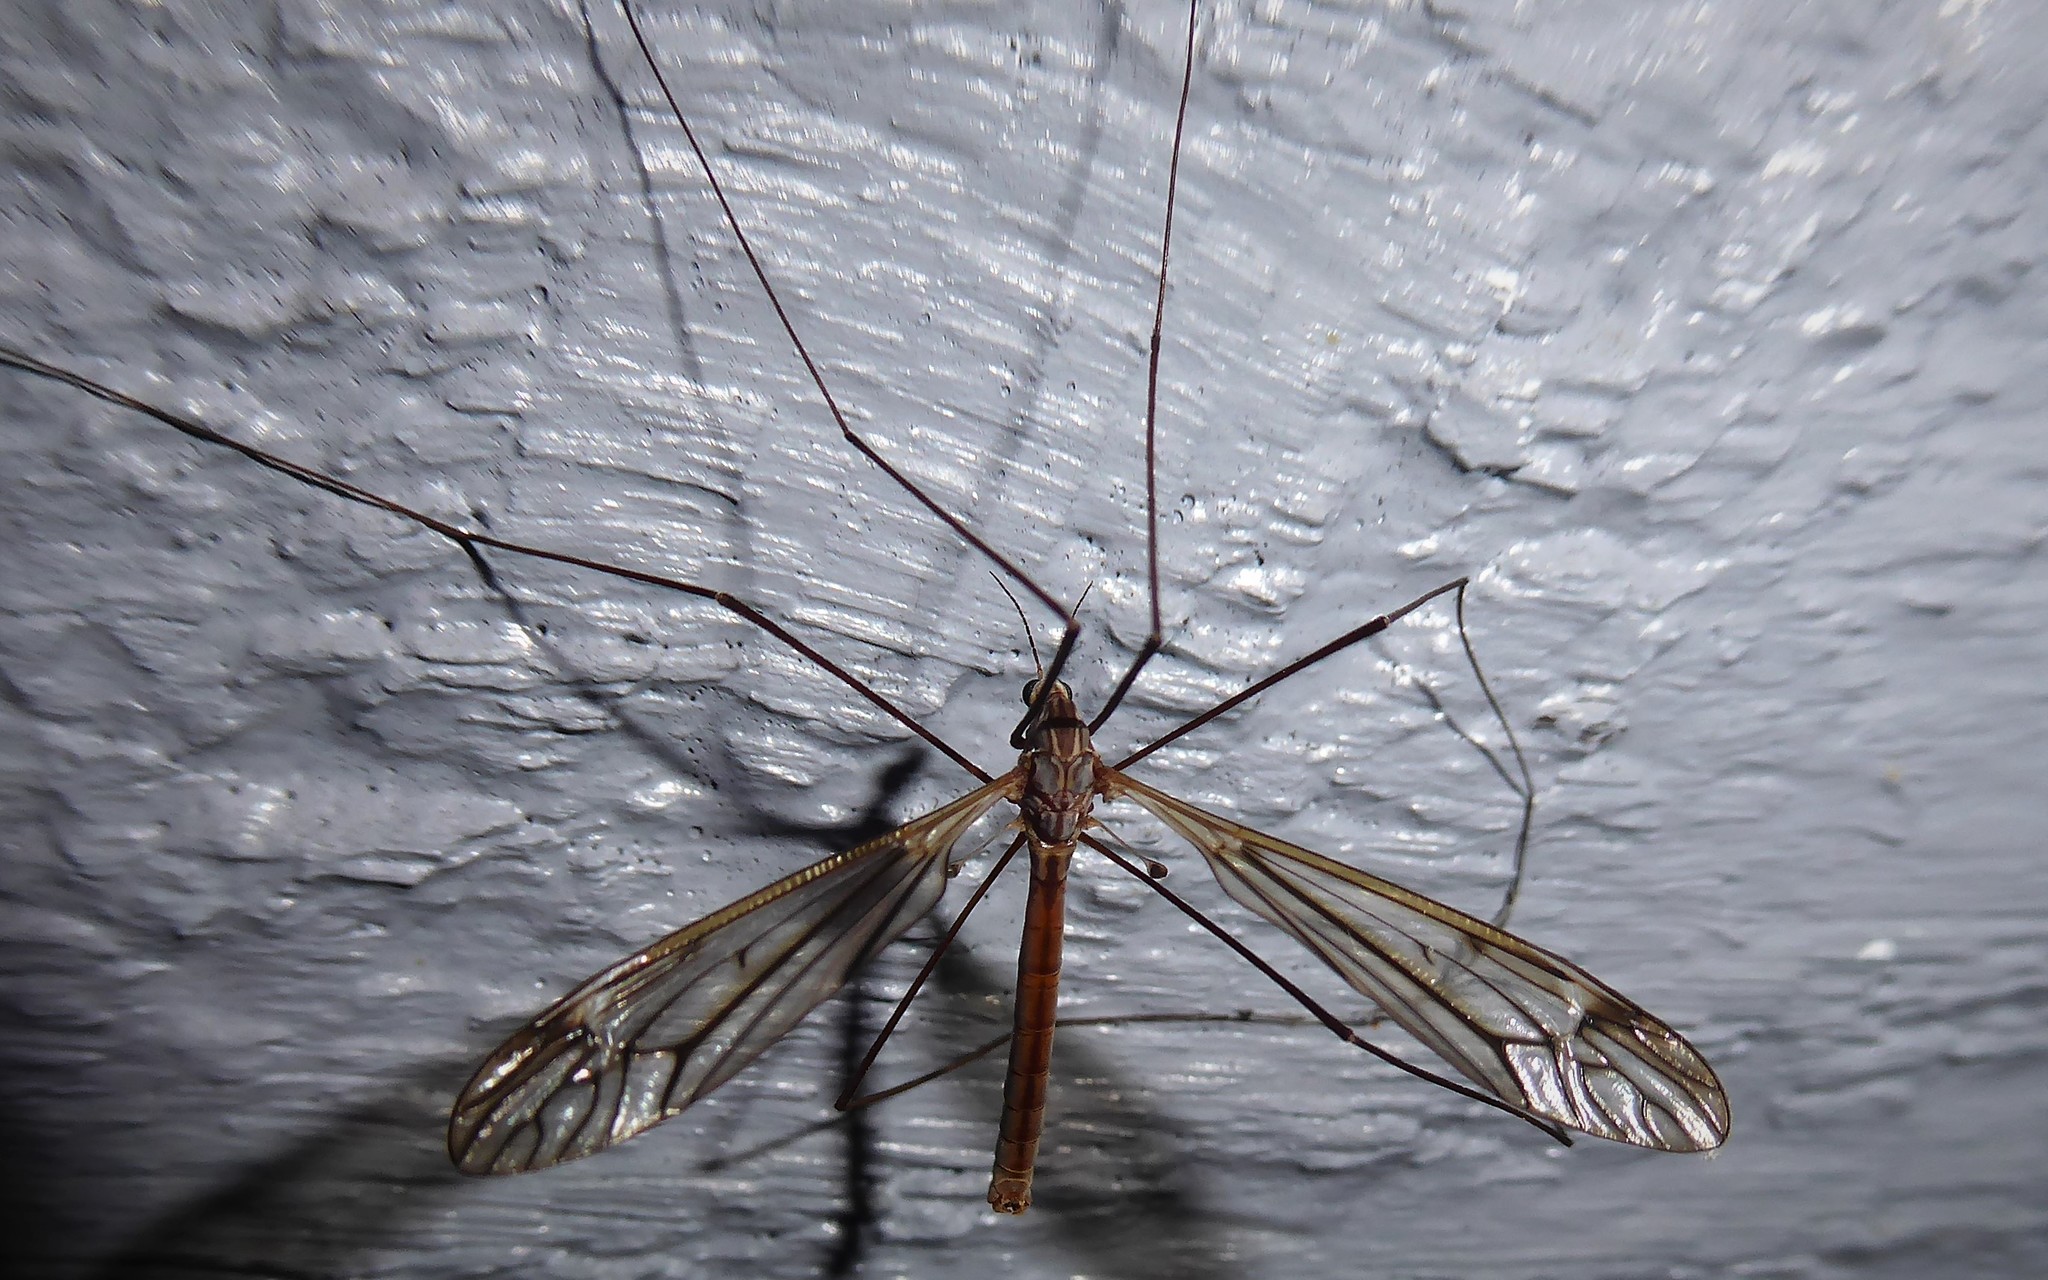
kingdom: Animalia
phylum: Arthropoda
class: Insecta
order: Diptera
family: Tipulidae
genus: Zelandotipula
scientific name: Zelandotipula novarae
